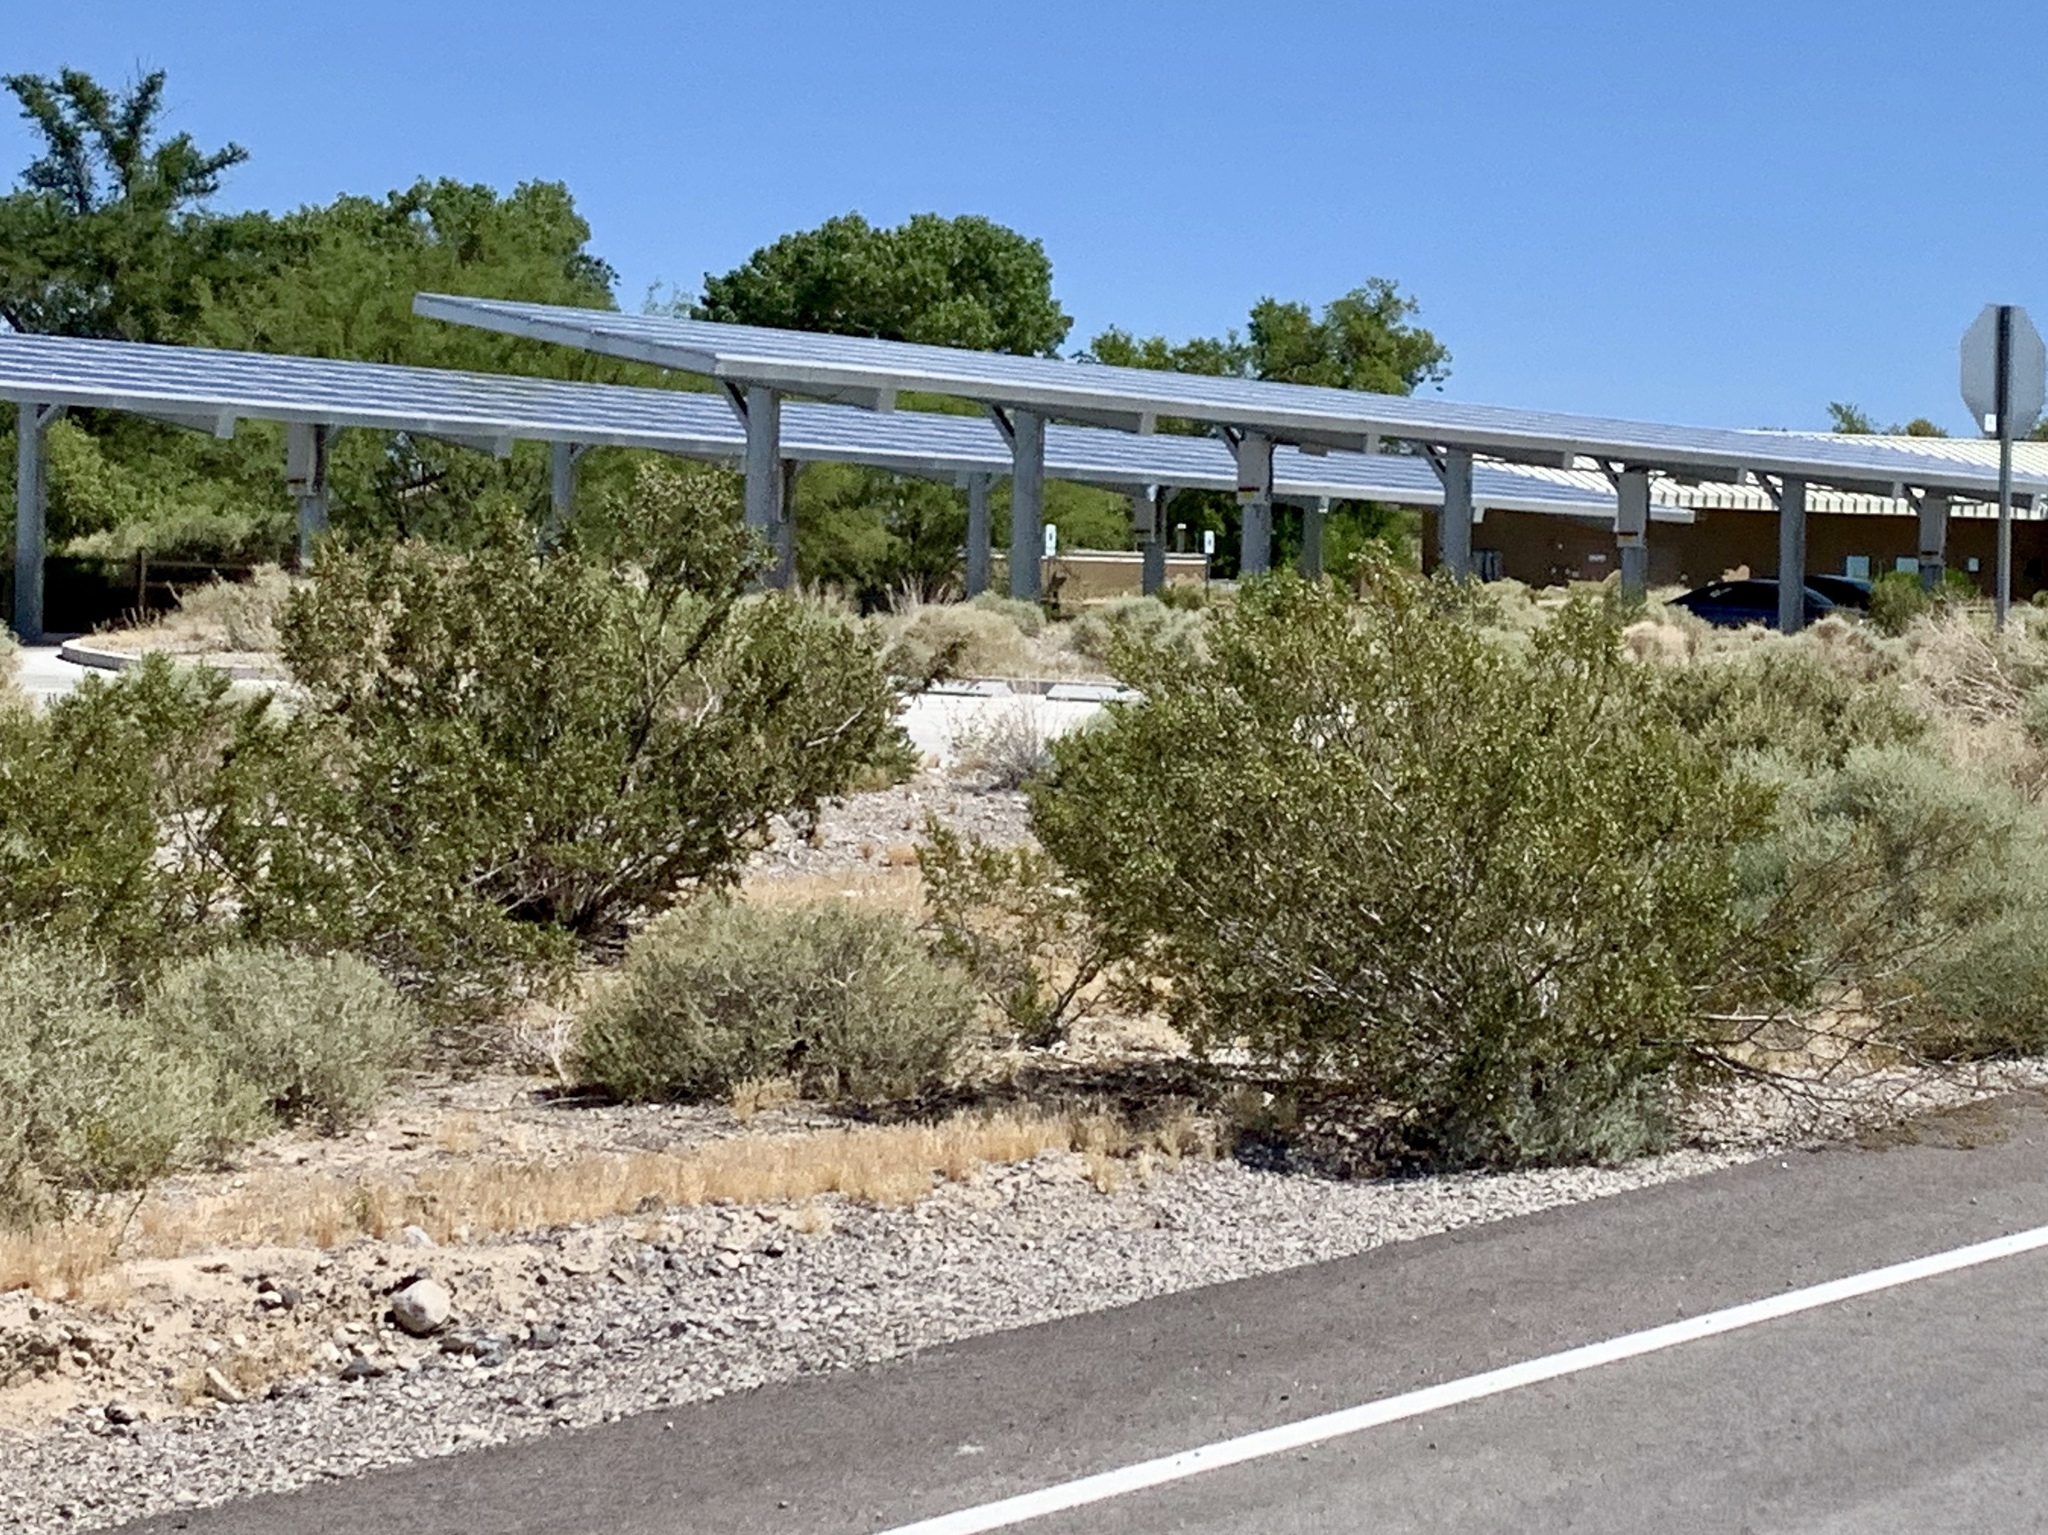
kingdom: Plantae
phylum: Tracheophyta
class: Magnoliopsida
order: Zygophyllales
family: Zygophyllaceae
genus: Larrea
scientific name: Larrea tridentata
